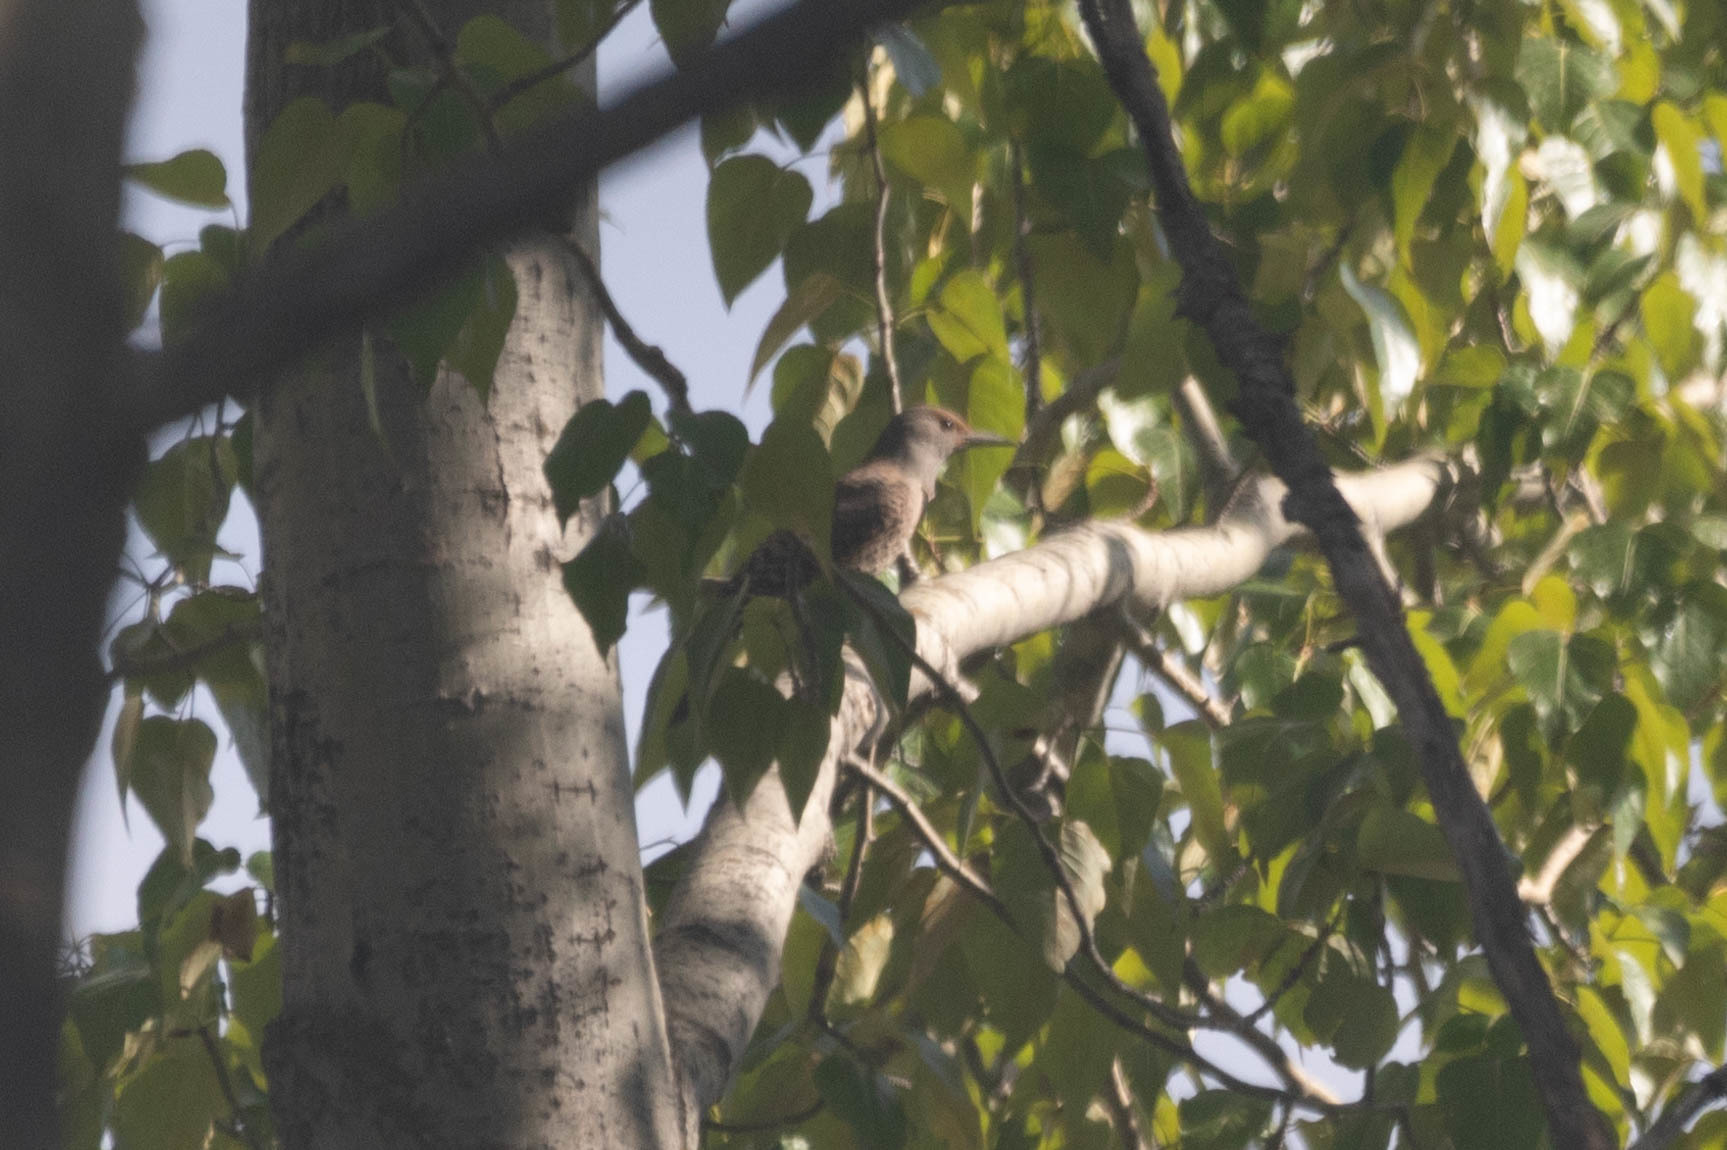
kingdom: Animalia
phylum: Chordata
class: Aves
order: Piciformes
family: Picidae
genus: Colaptes
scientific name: Colaptes auratus
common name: Northern flicker
